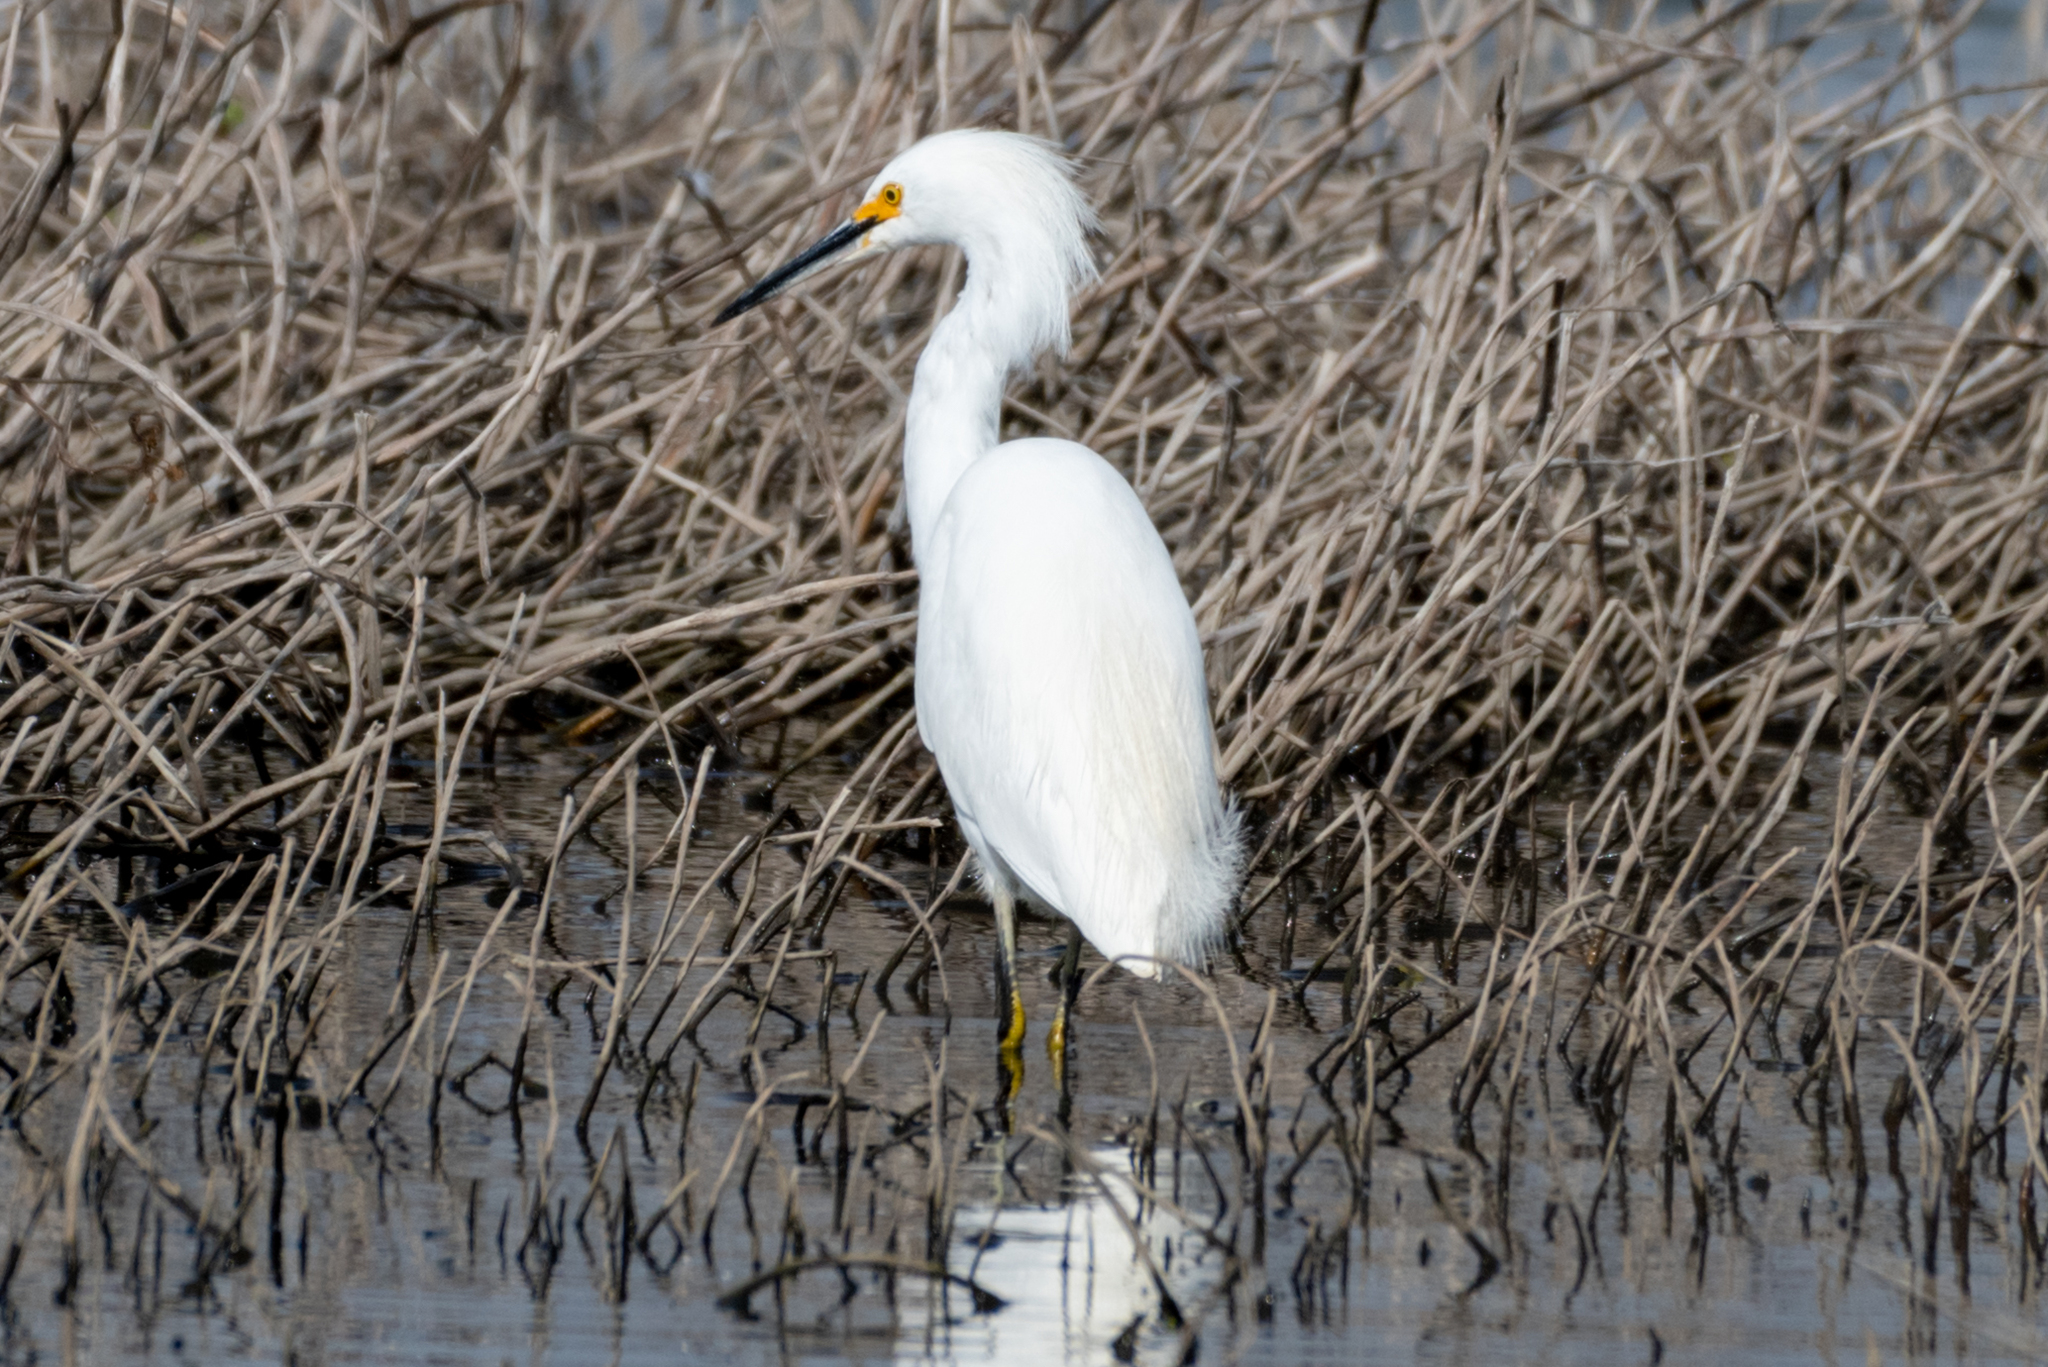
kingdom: Animalia
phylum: Chordata
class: Aves
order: Pelecaniformes
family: Ardeidae
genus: Egretta
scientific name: Egretta thula
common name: Snowy egret
